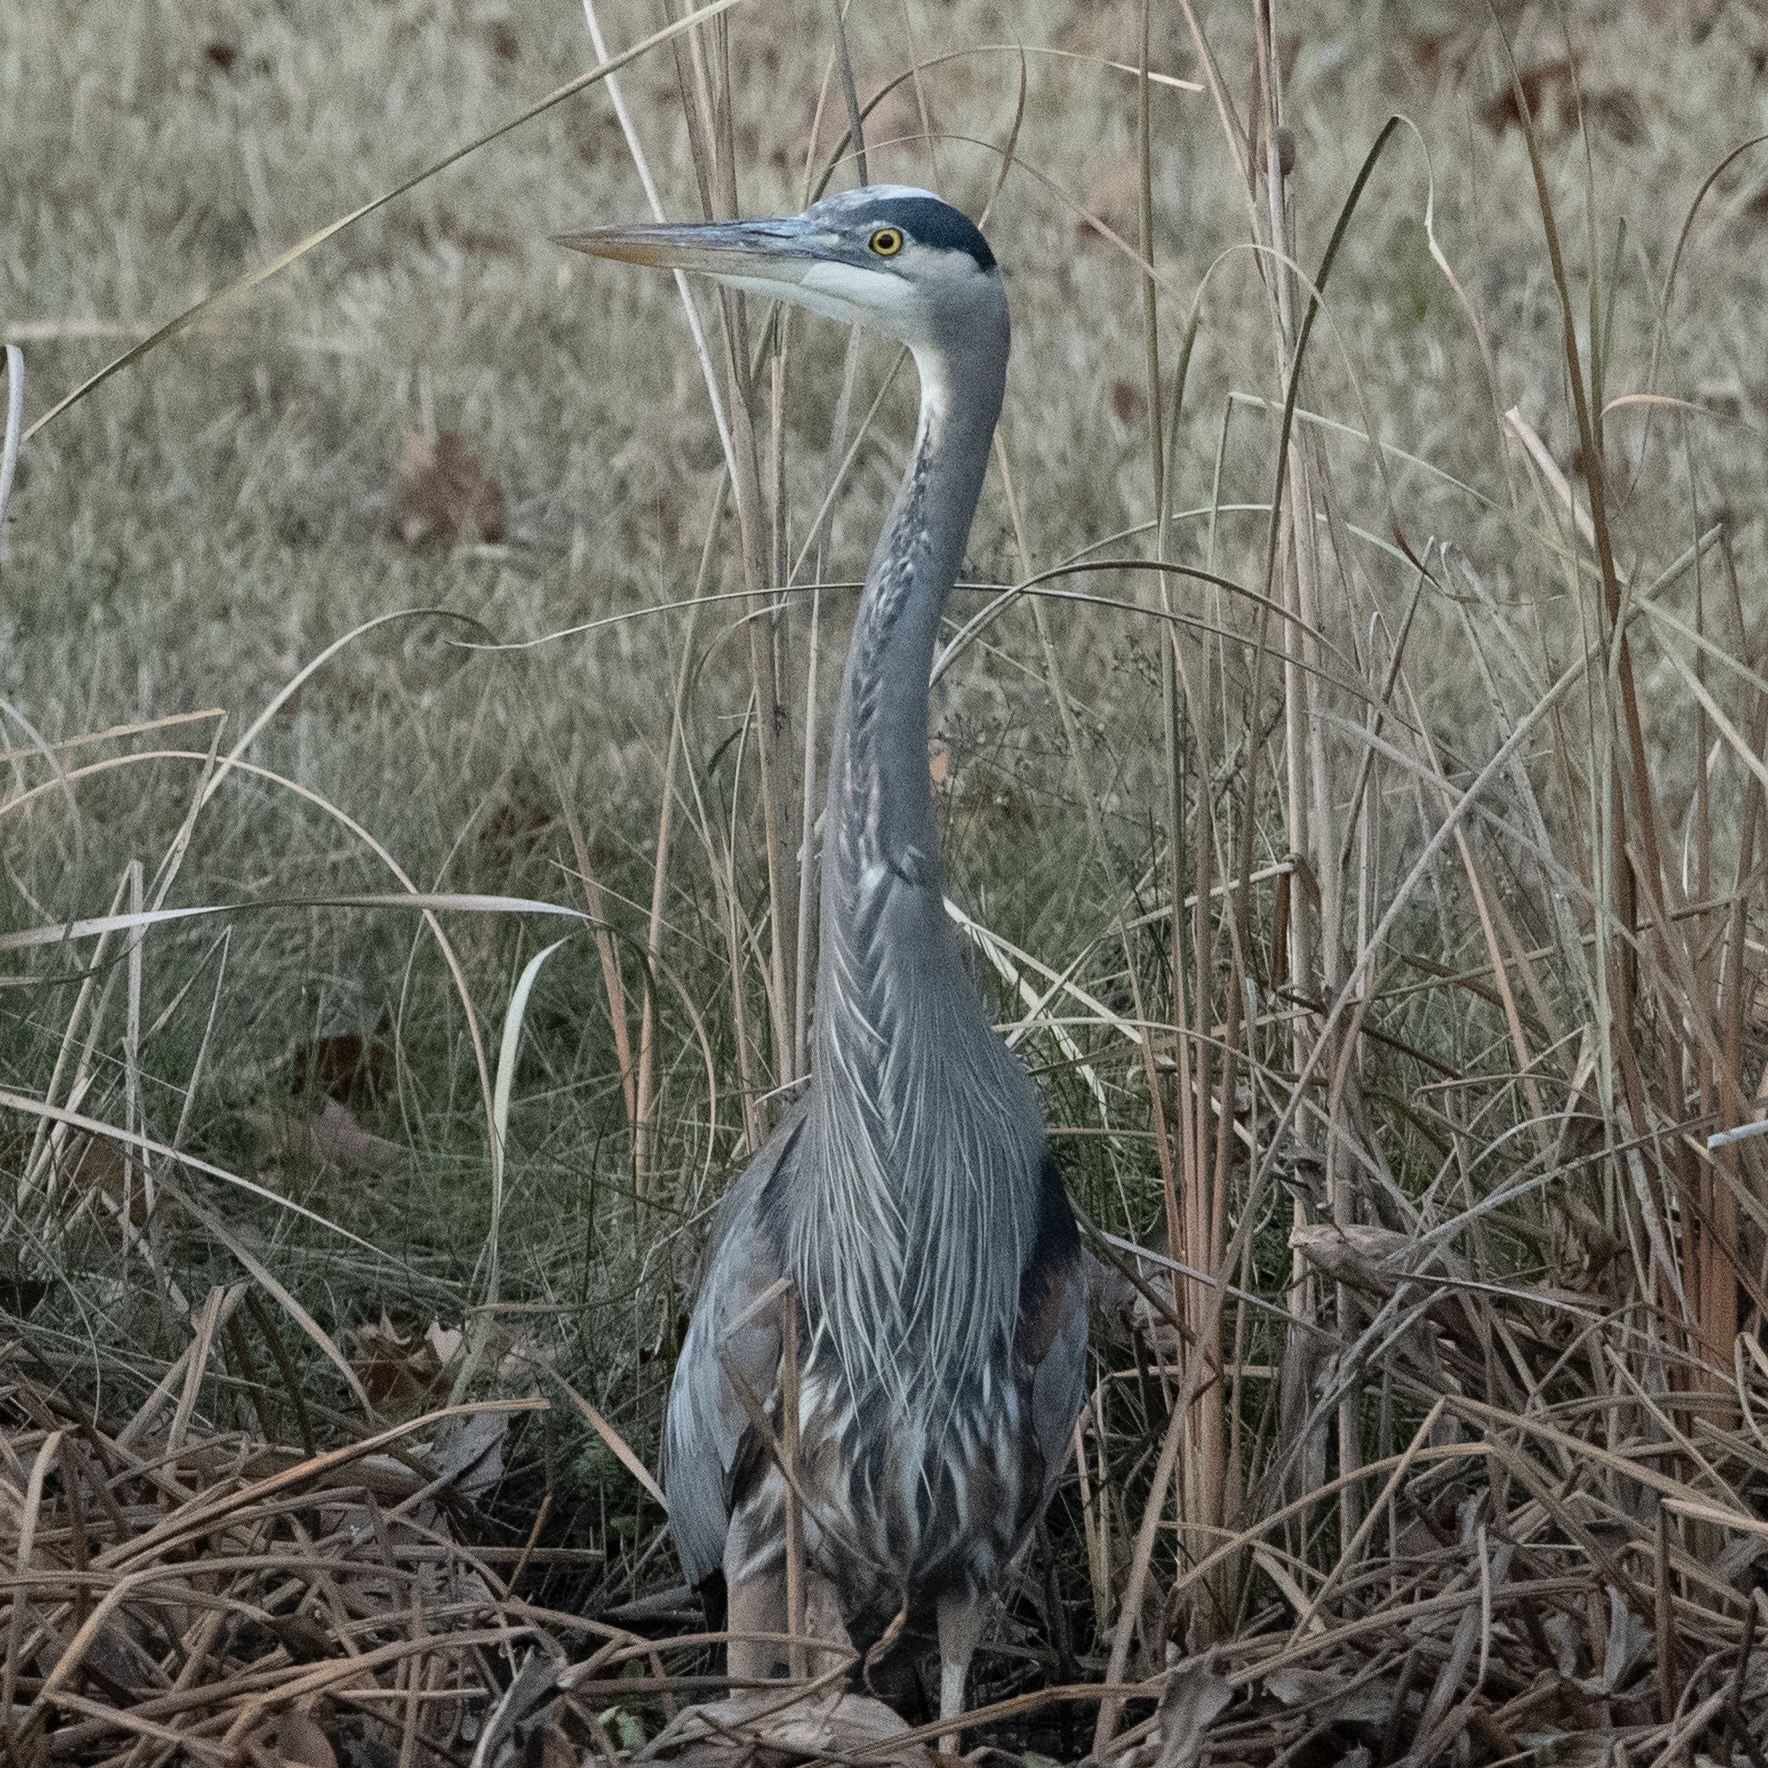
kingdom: Animalia
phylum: Chordata
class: Aves
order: Pelecaniformes
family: Ardeidae
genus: Ardea
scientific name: Ardea herodias
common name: Great blue heron
